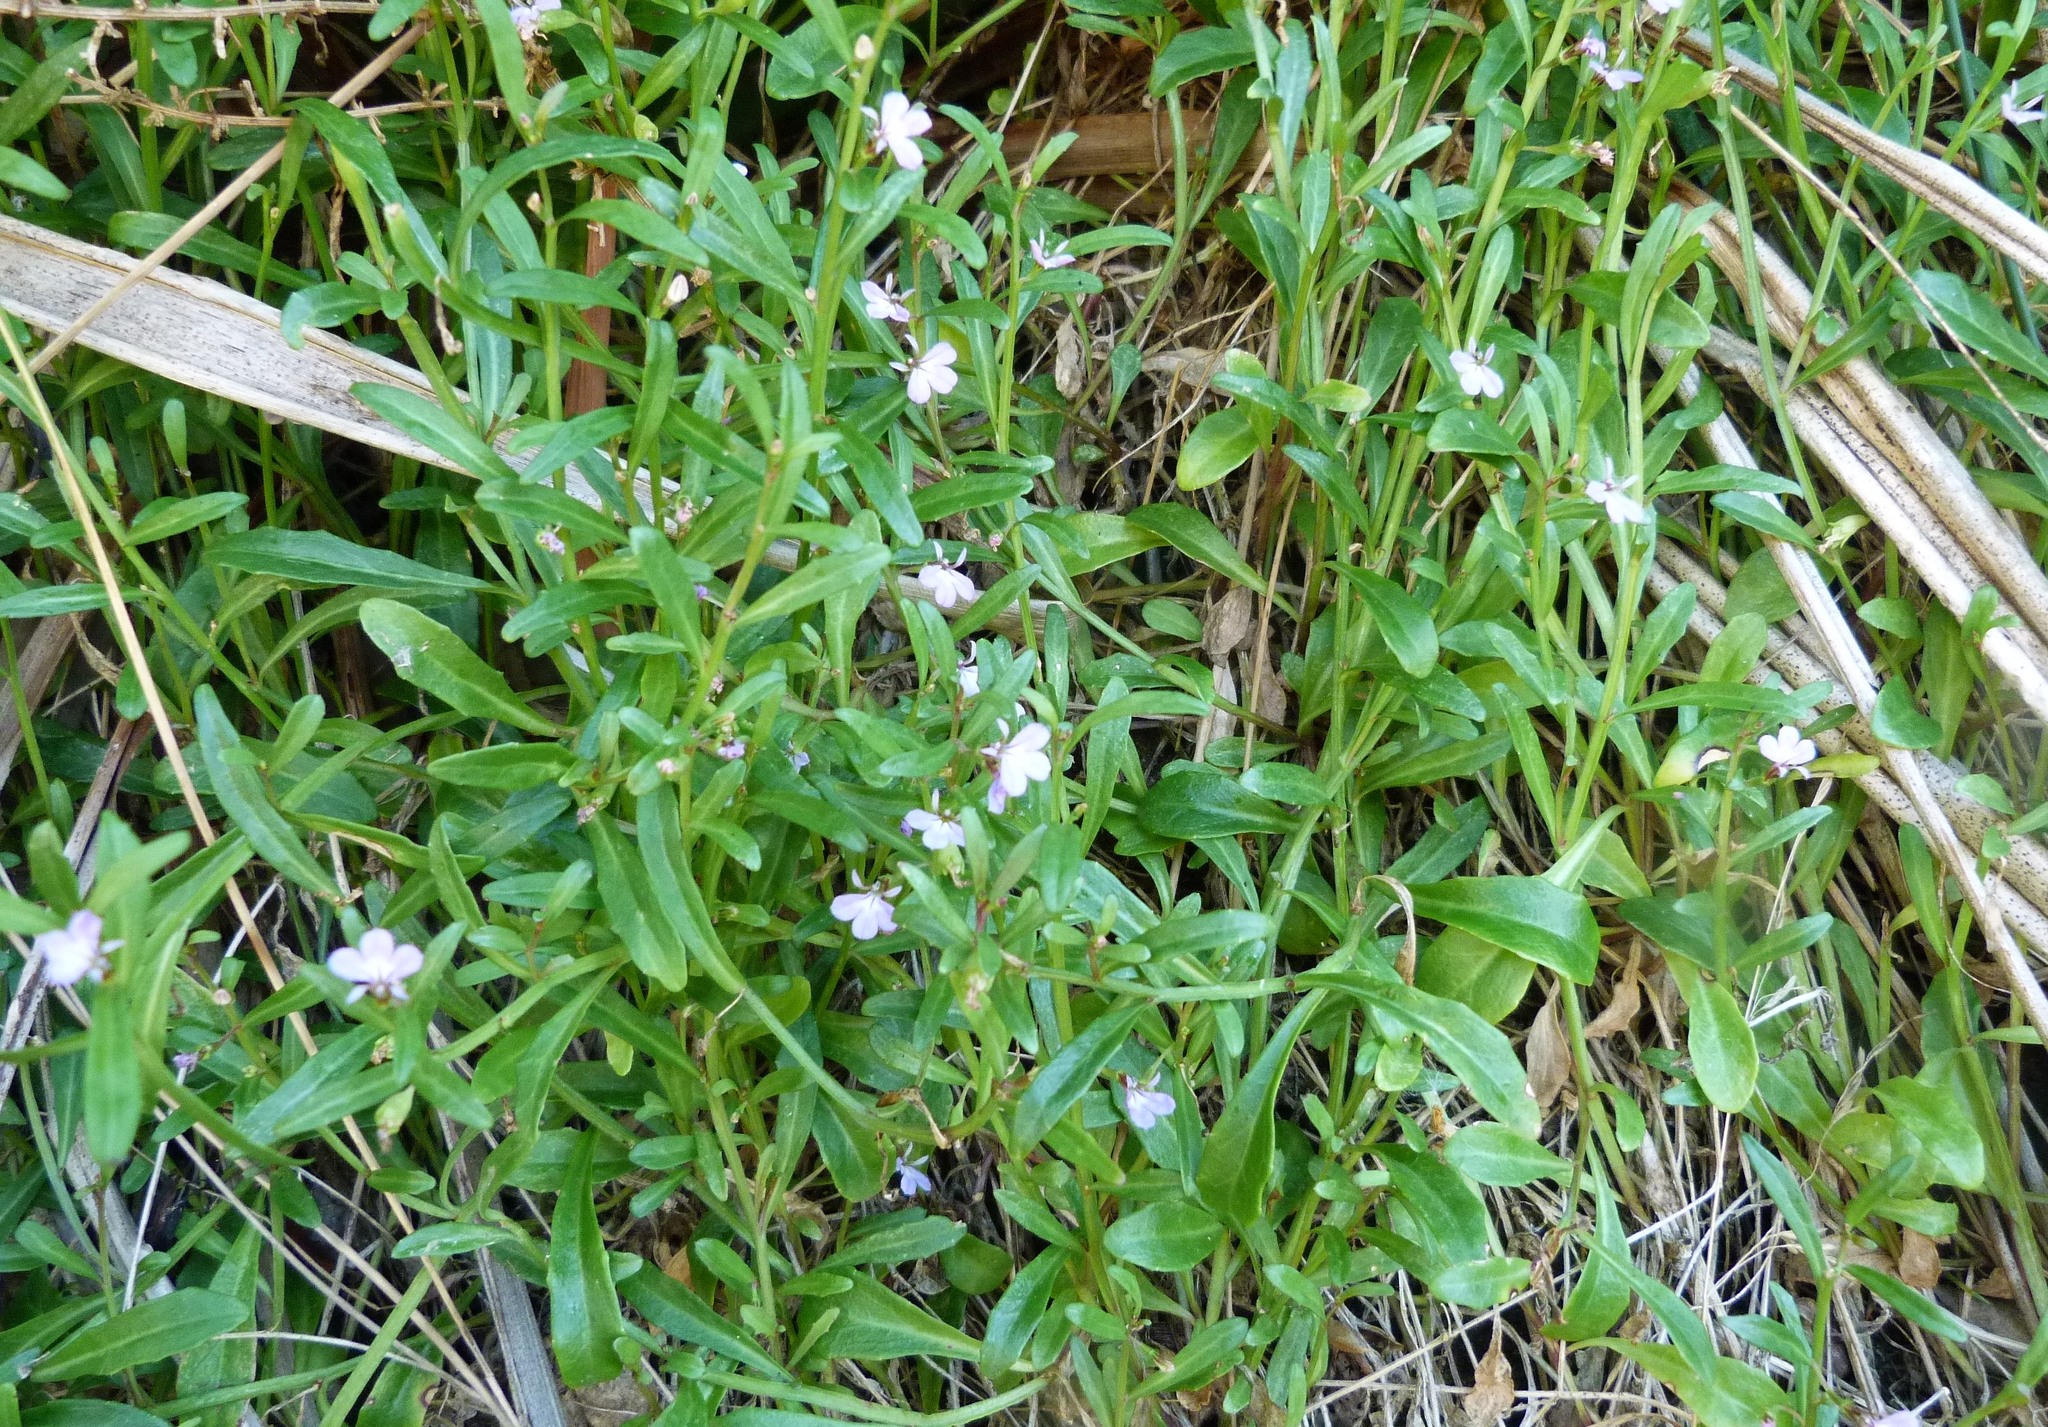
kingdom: Plantae
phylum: Tracheophyta
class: Magnoliopsida
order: Asterales
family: Campanulaceae
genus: Lobelia
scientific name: Lobelia anceps
